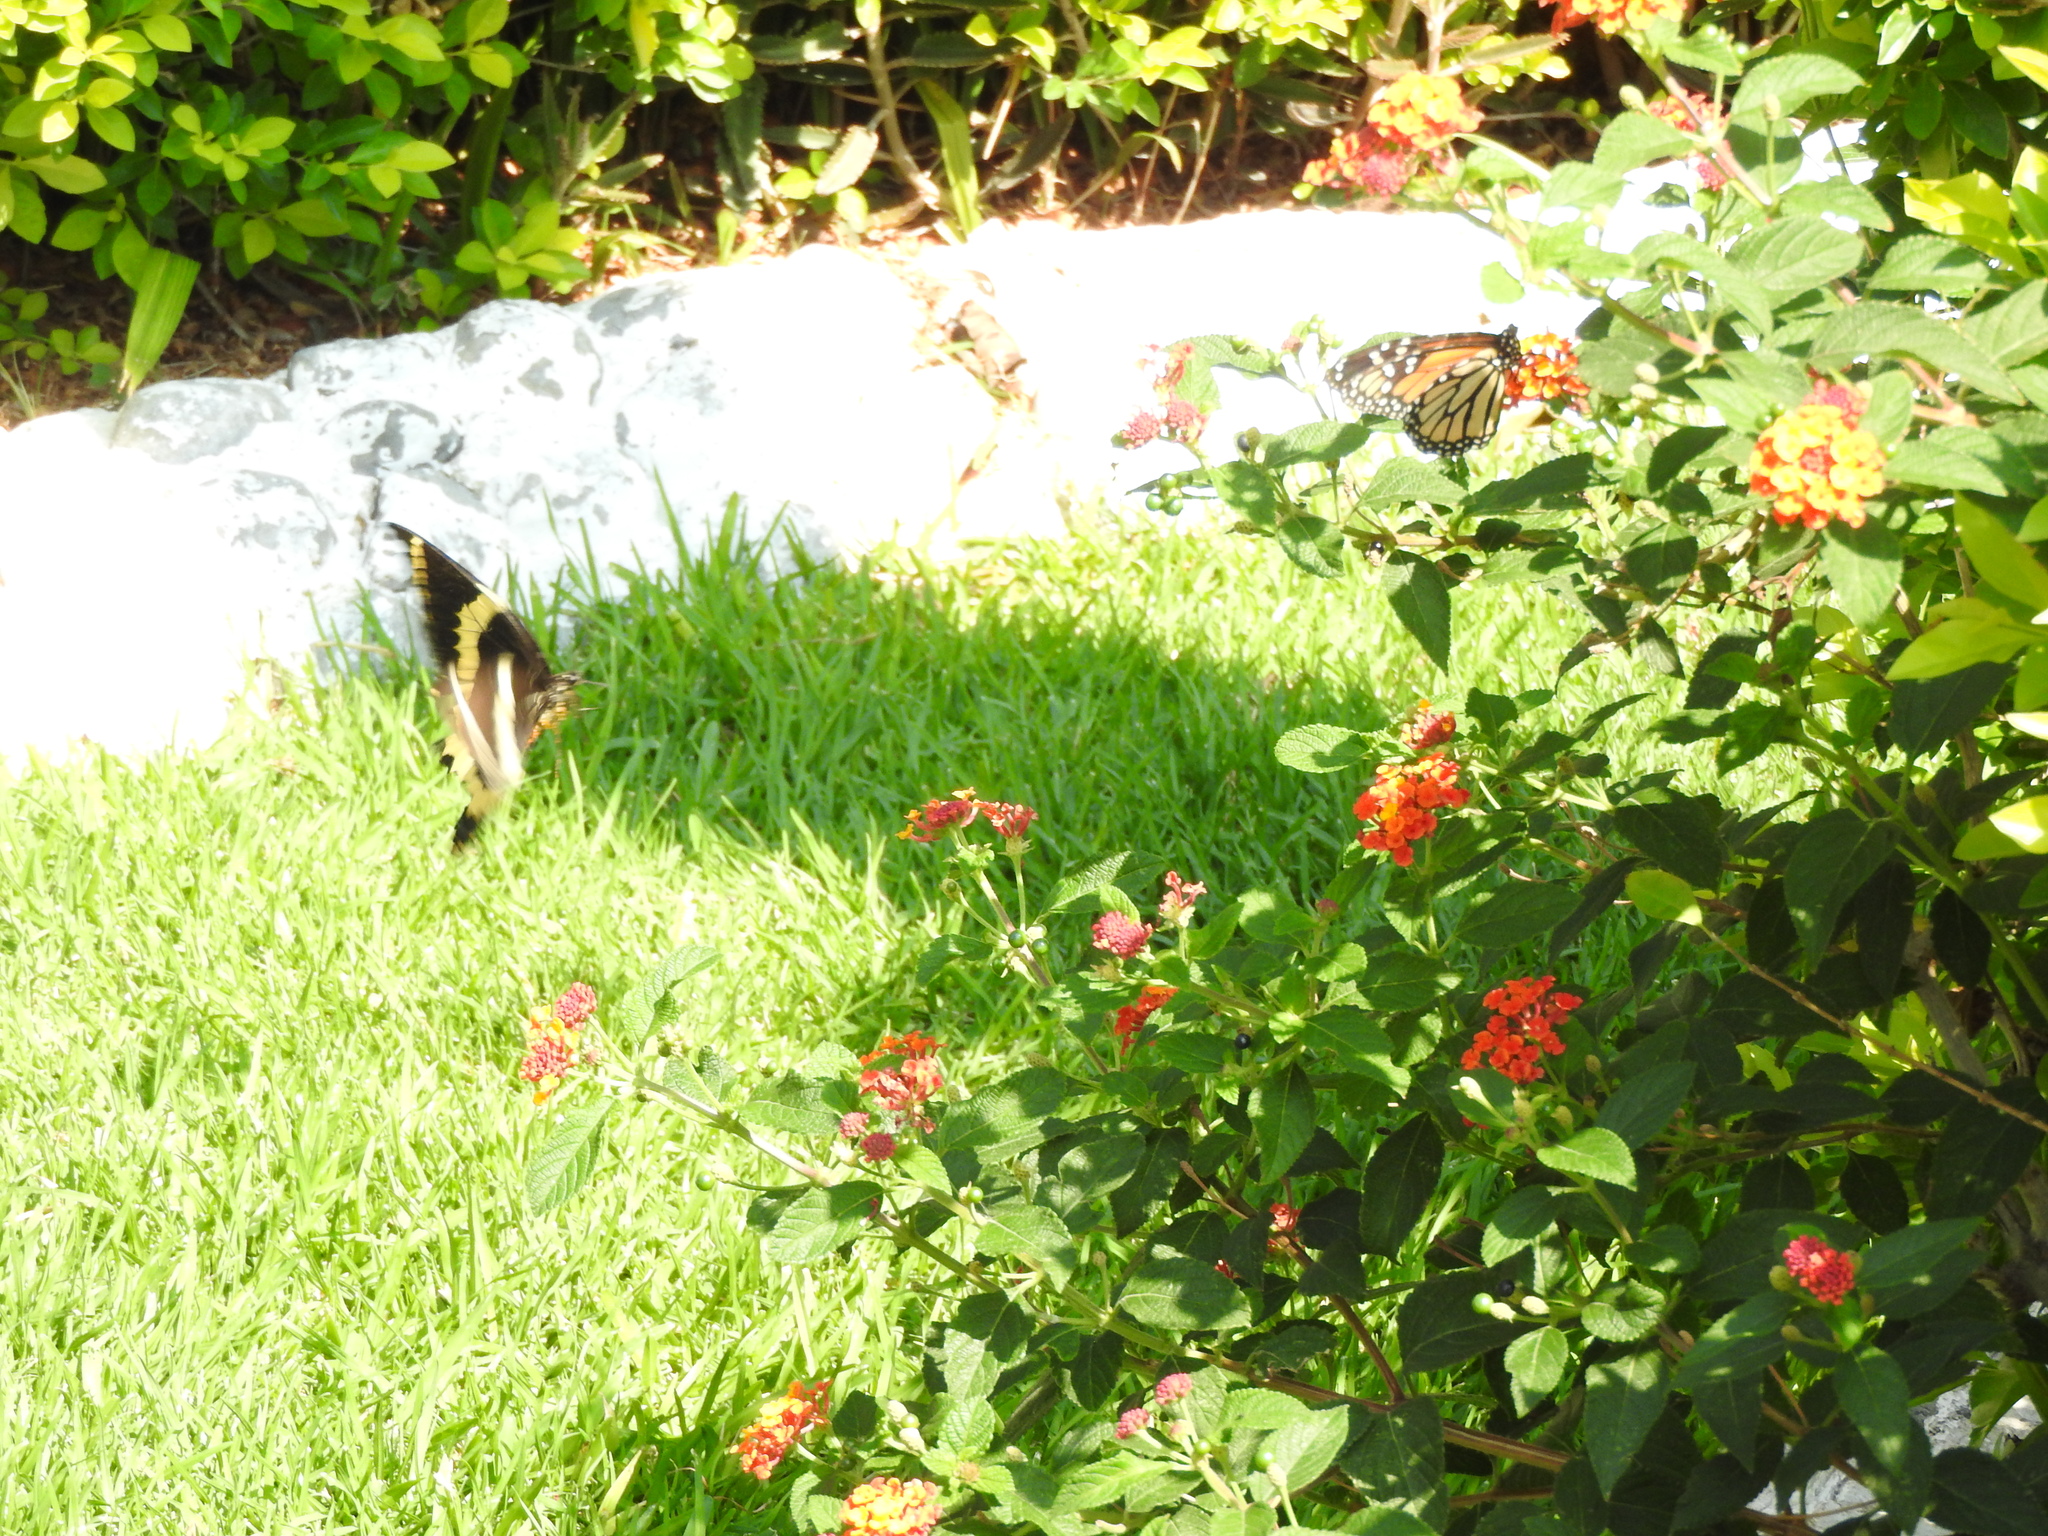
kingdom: Animalia
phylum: Arthropoda
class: Insecta
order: Lepidoptera
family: Nymphalidae
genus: Danaus
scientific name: Danaus plexippus
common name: Monarch
